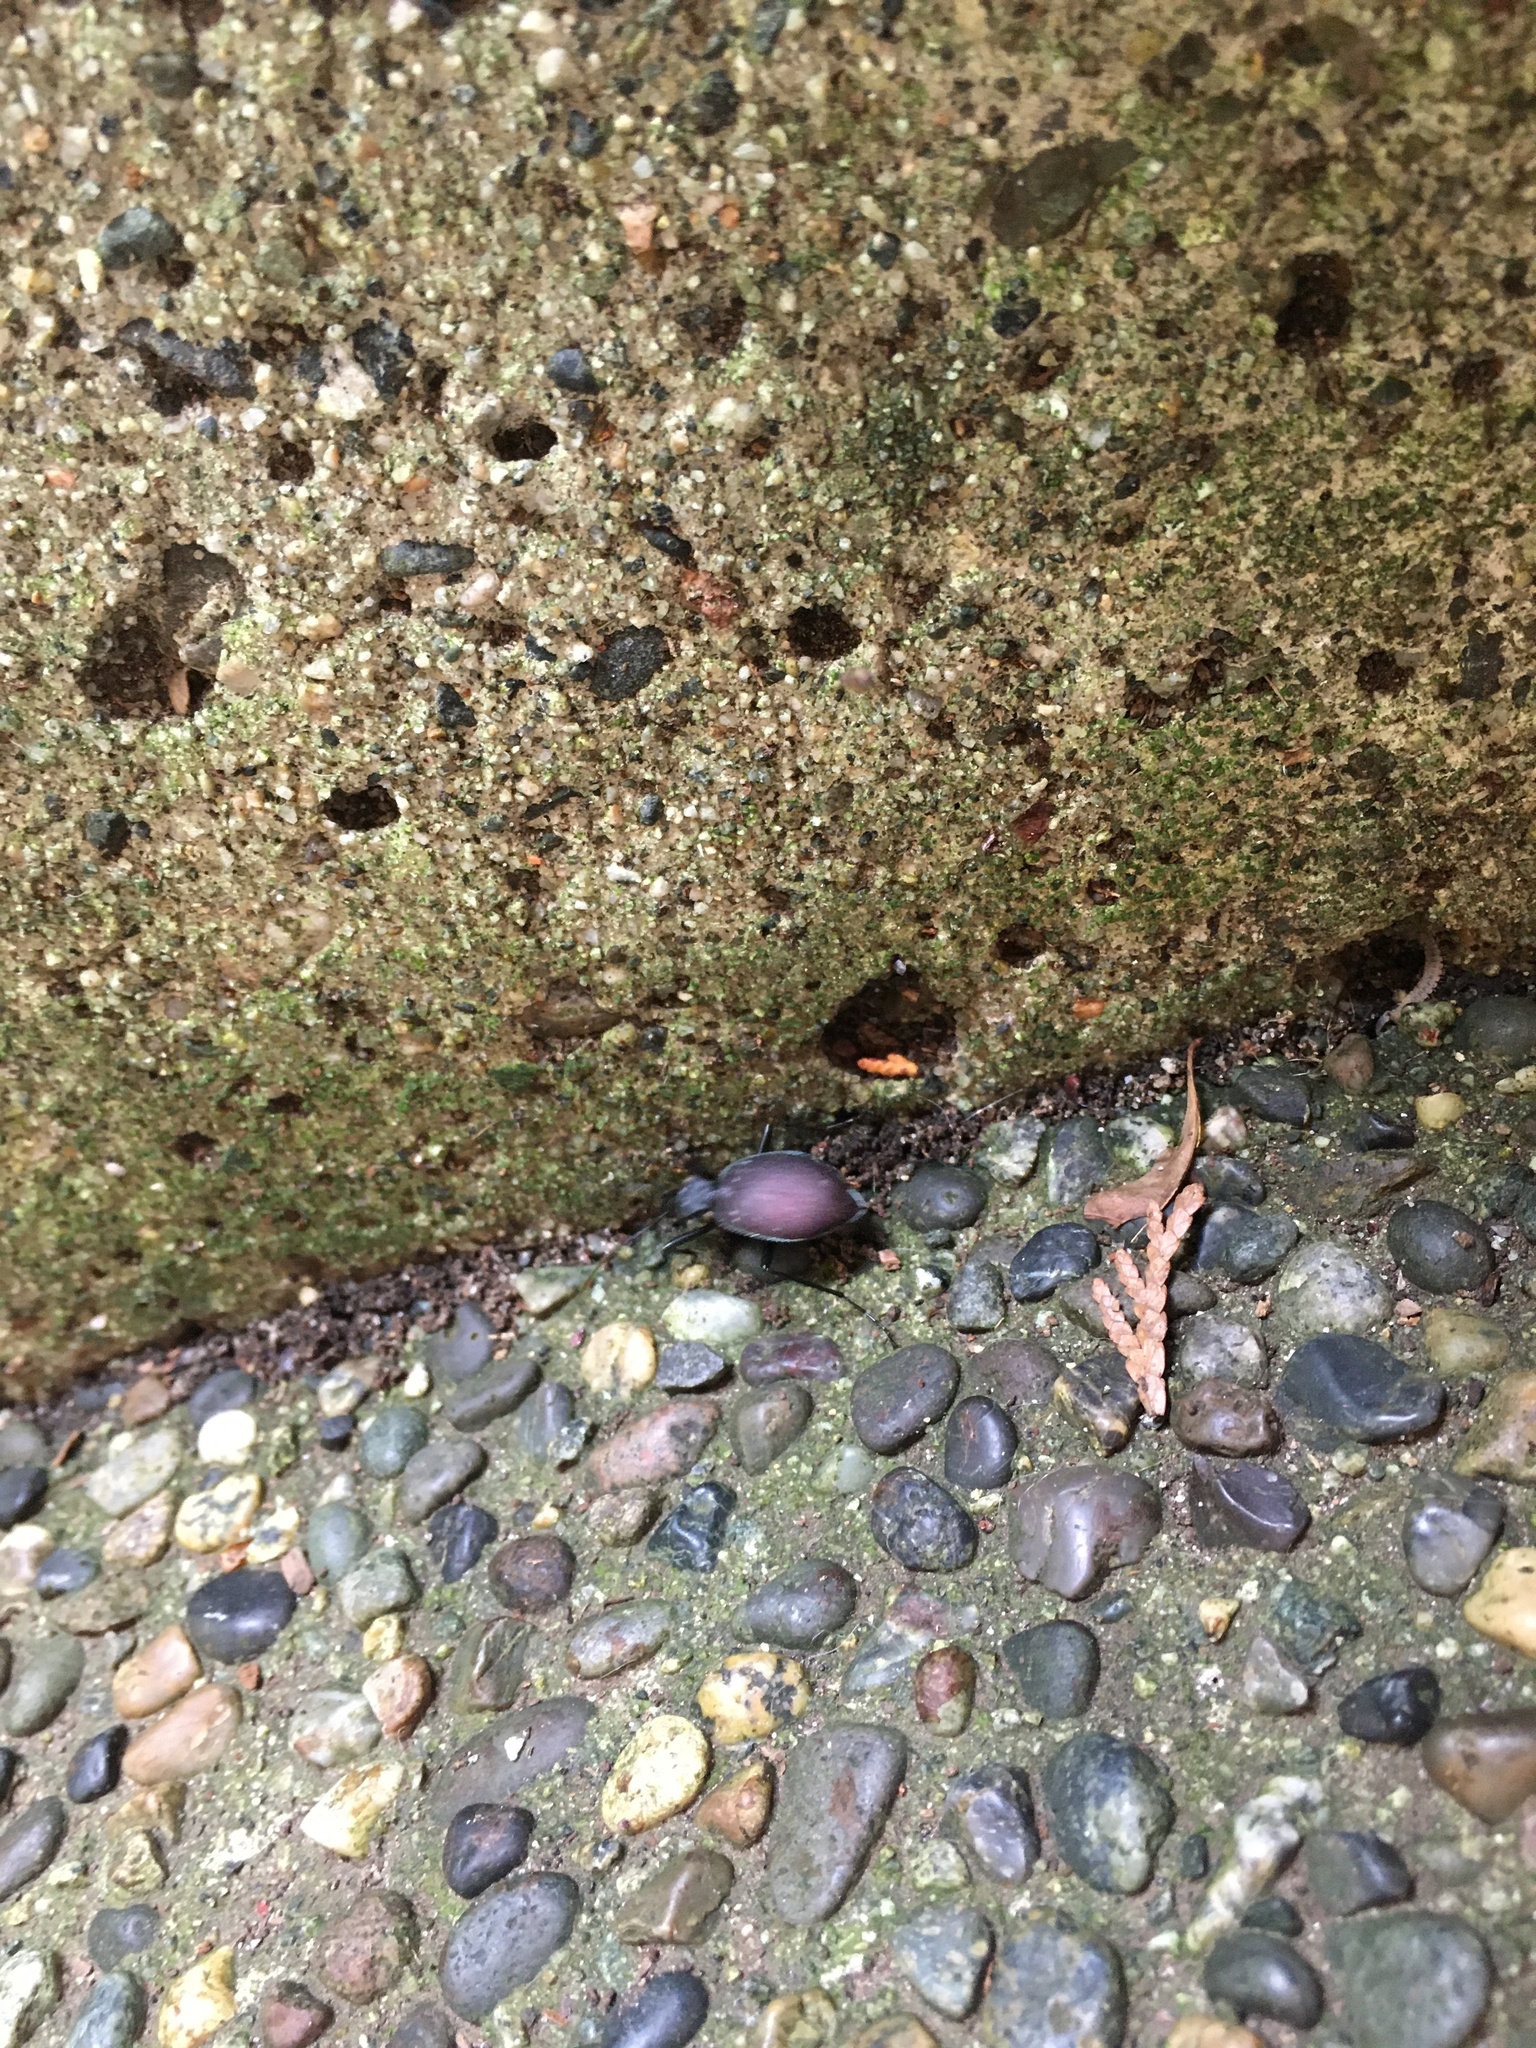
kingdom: Animalia
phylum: Arthropoda
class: Insecta
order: Coleoptera
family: Carabidae
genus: Scaphinotus
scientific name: Scaphinotus angusticollis
